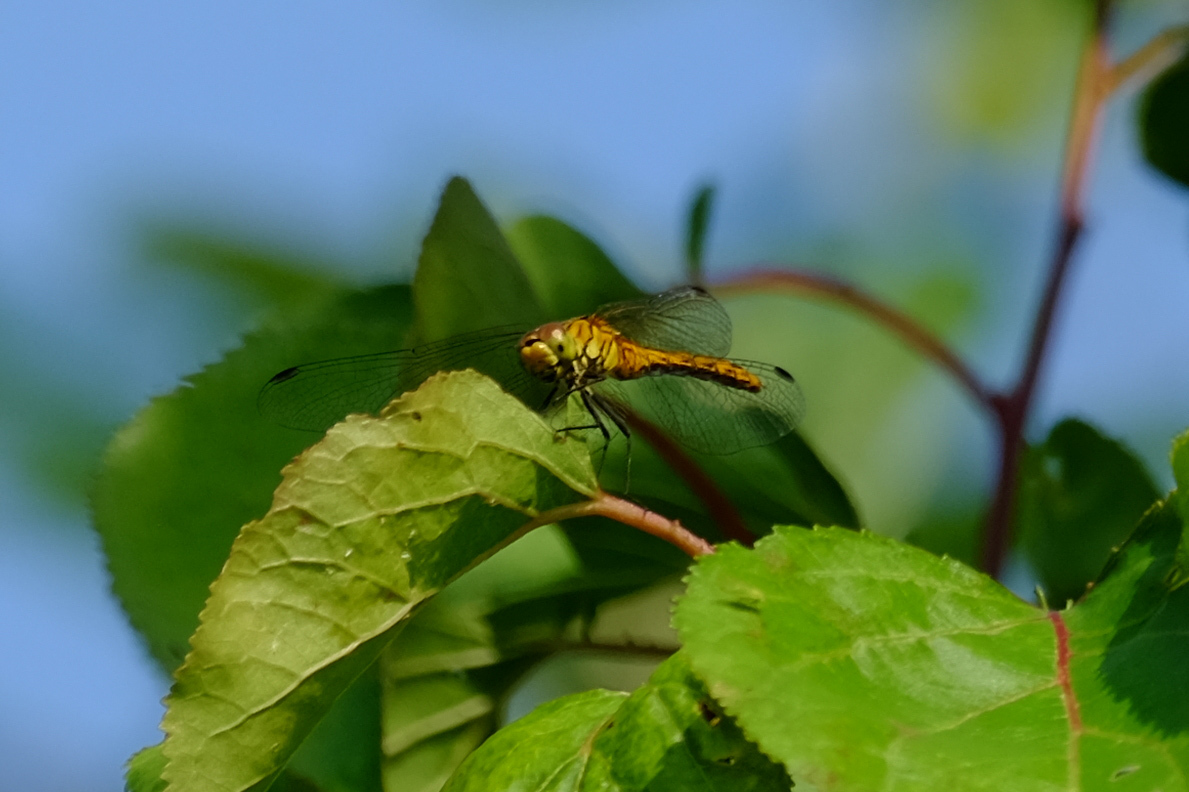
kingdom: Animalia
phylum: Arthropoda
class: Insecta
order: Odonata
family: Libellulidae
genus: Sympetrum
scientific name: Sympetrum sanguineum
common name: Ruddy darter
